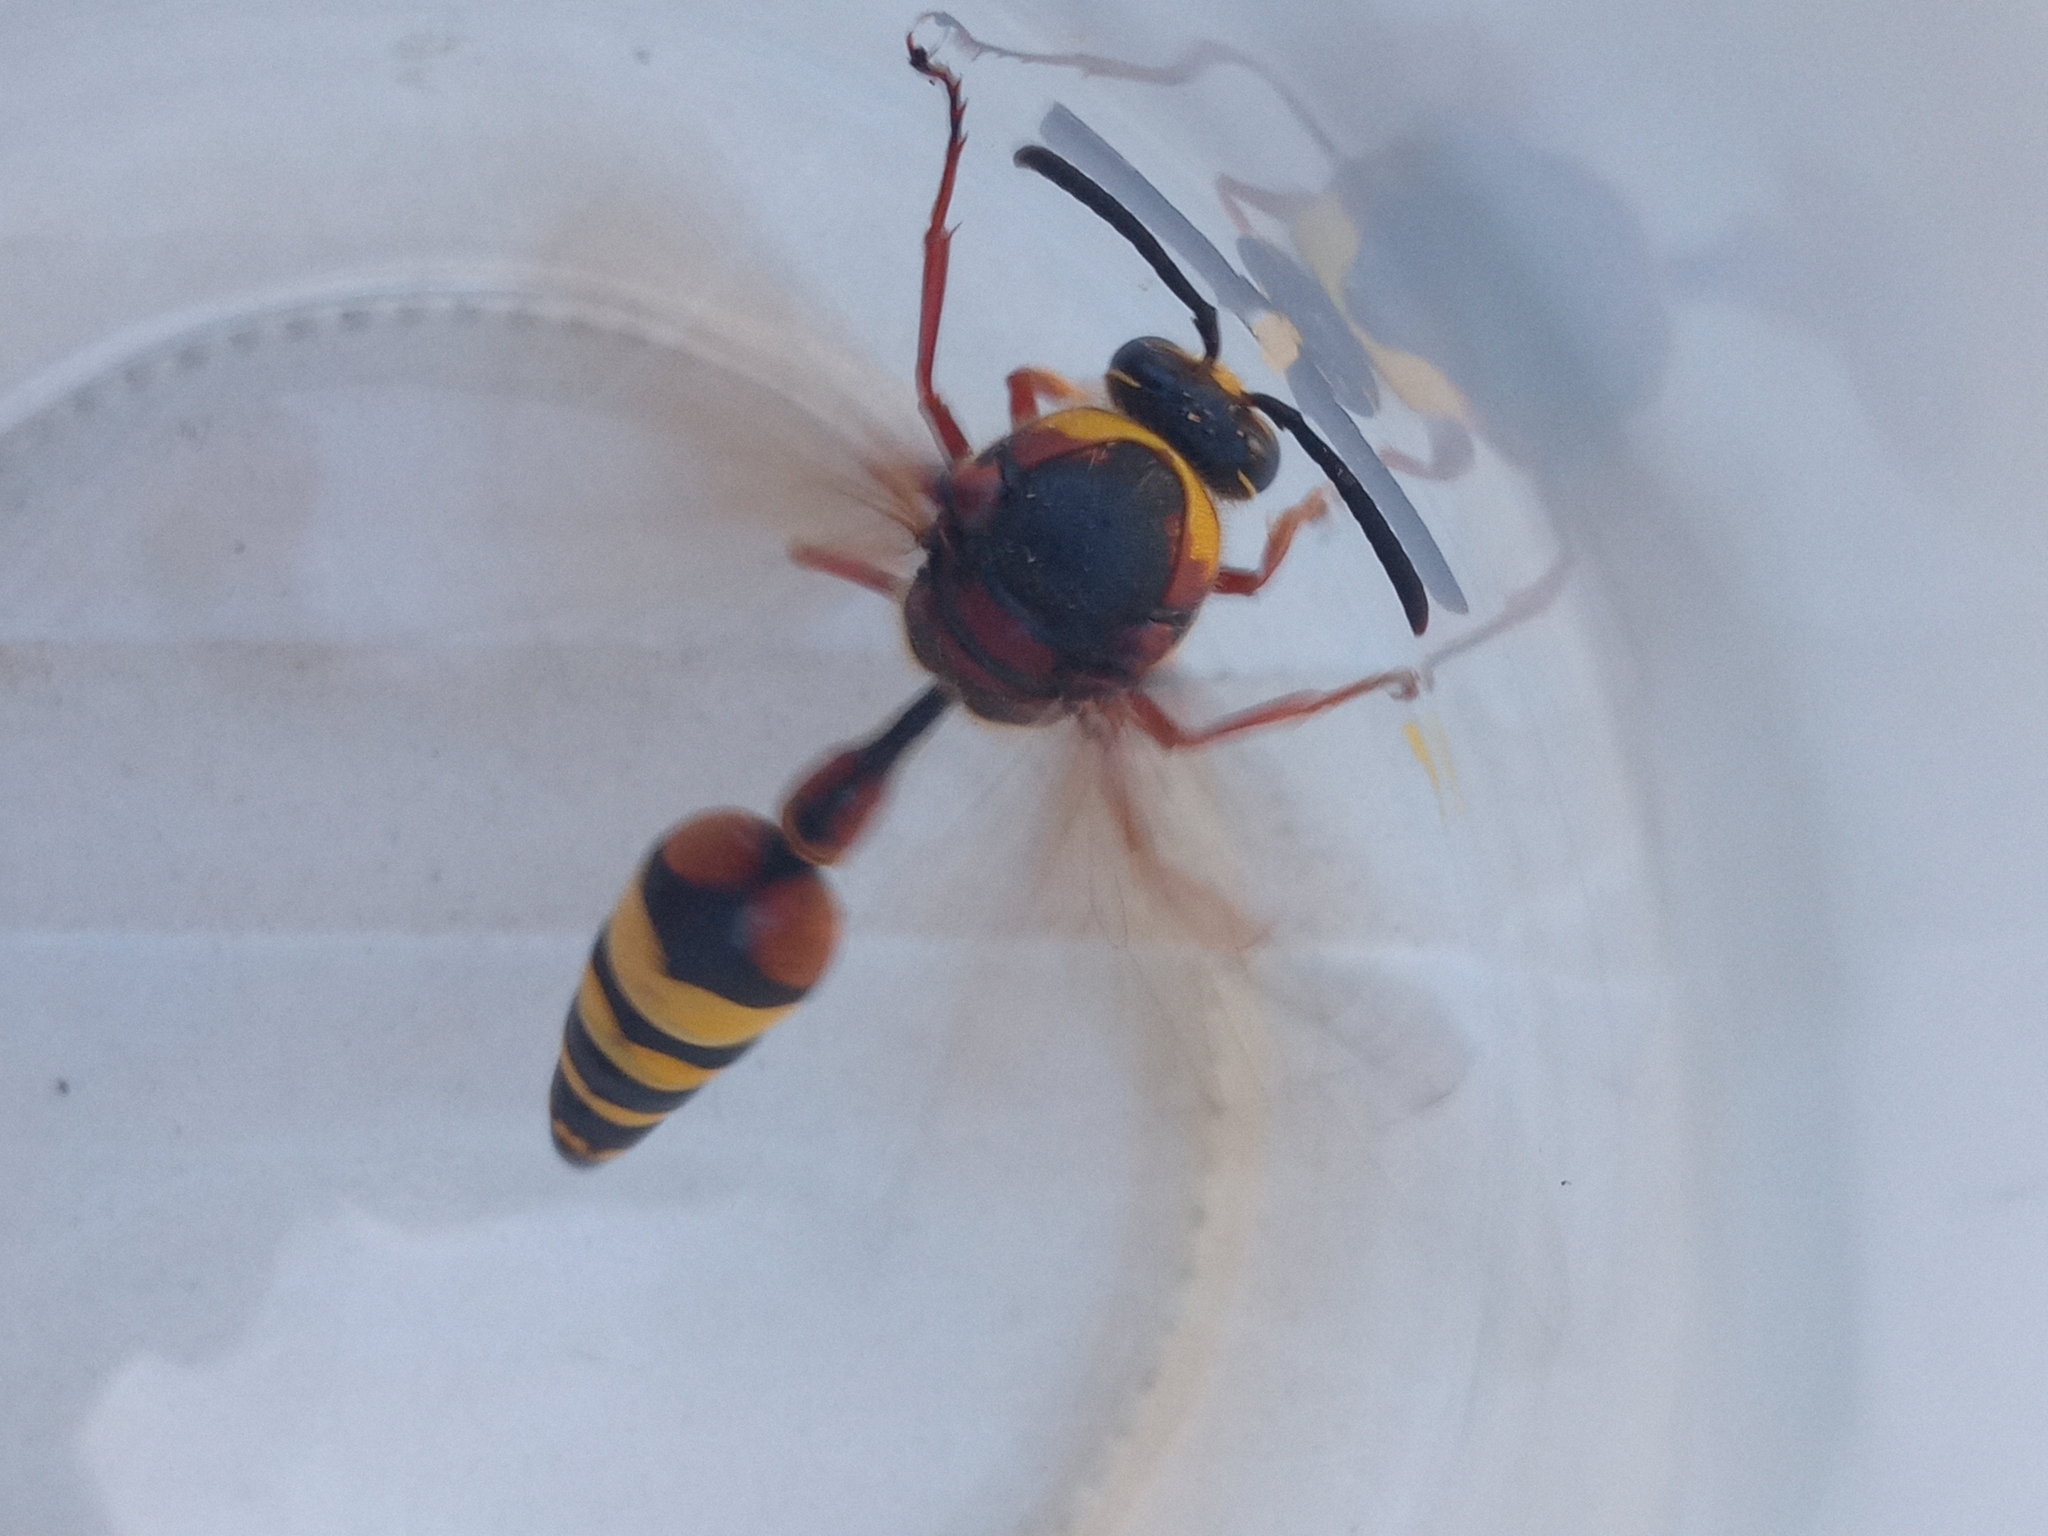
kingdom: Animalia
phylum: Arthropoda
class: Insecta
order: Hymenoptera
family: Eumenidae
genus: Delta
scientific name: Delta unguiculatum
